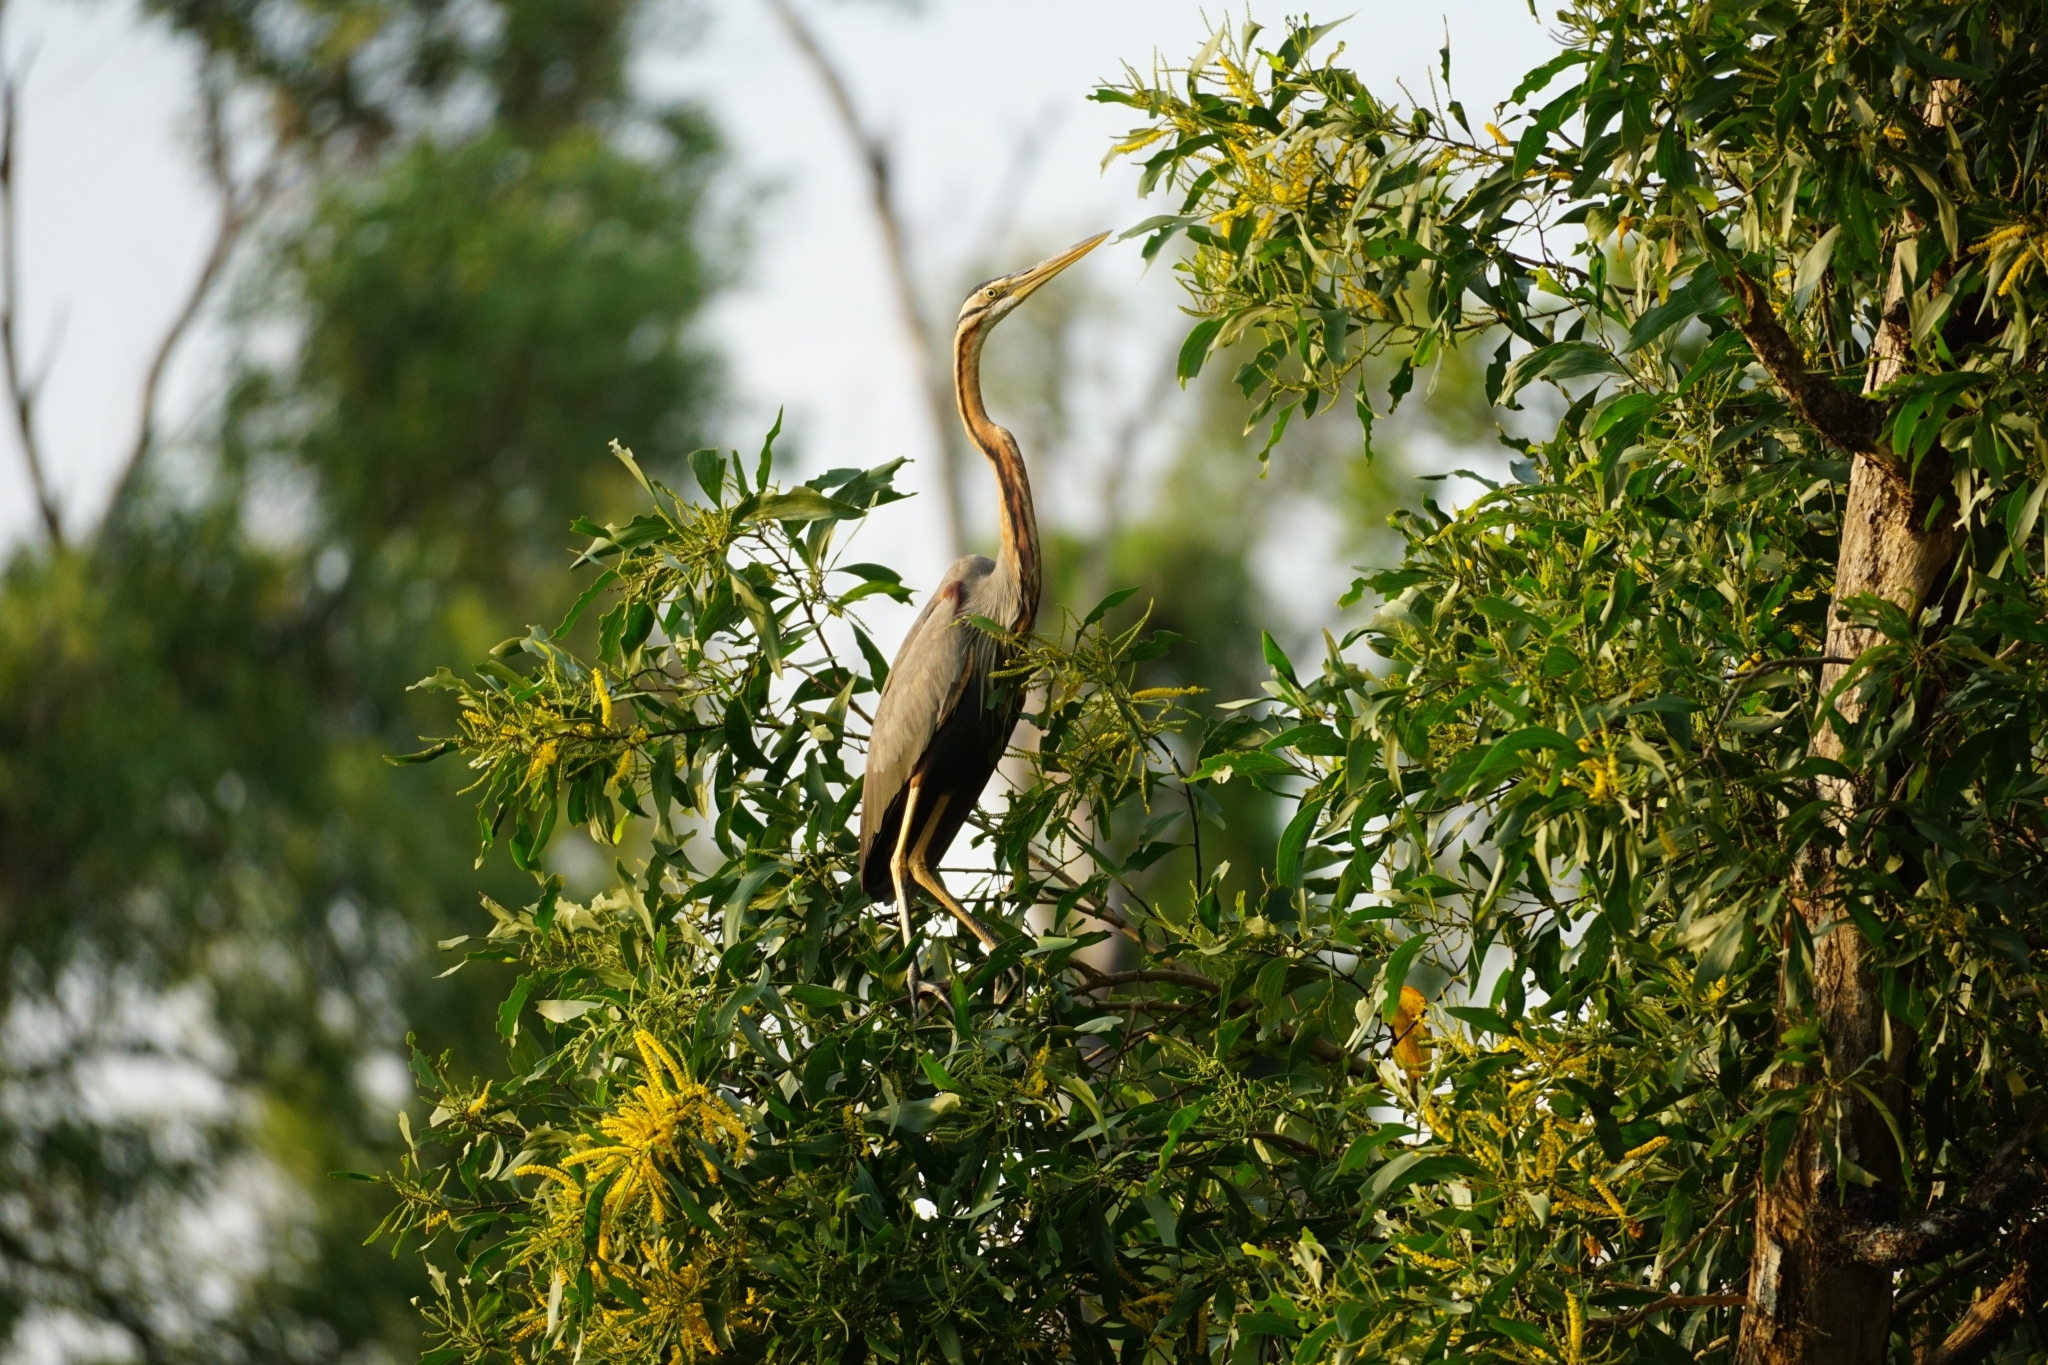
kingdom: Animalia
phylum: Chordata
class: Aves
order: Pelecaniformes
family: Ardeidae
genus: Ardea
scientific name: Ardea purpurea
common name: Purple heron
